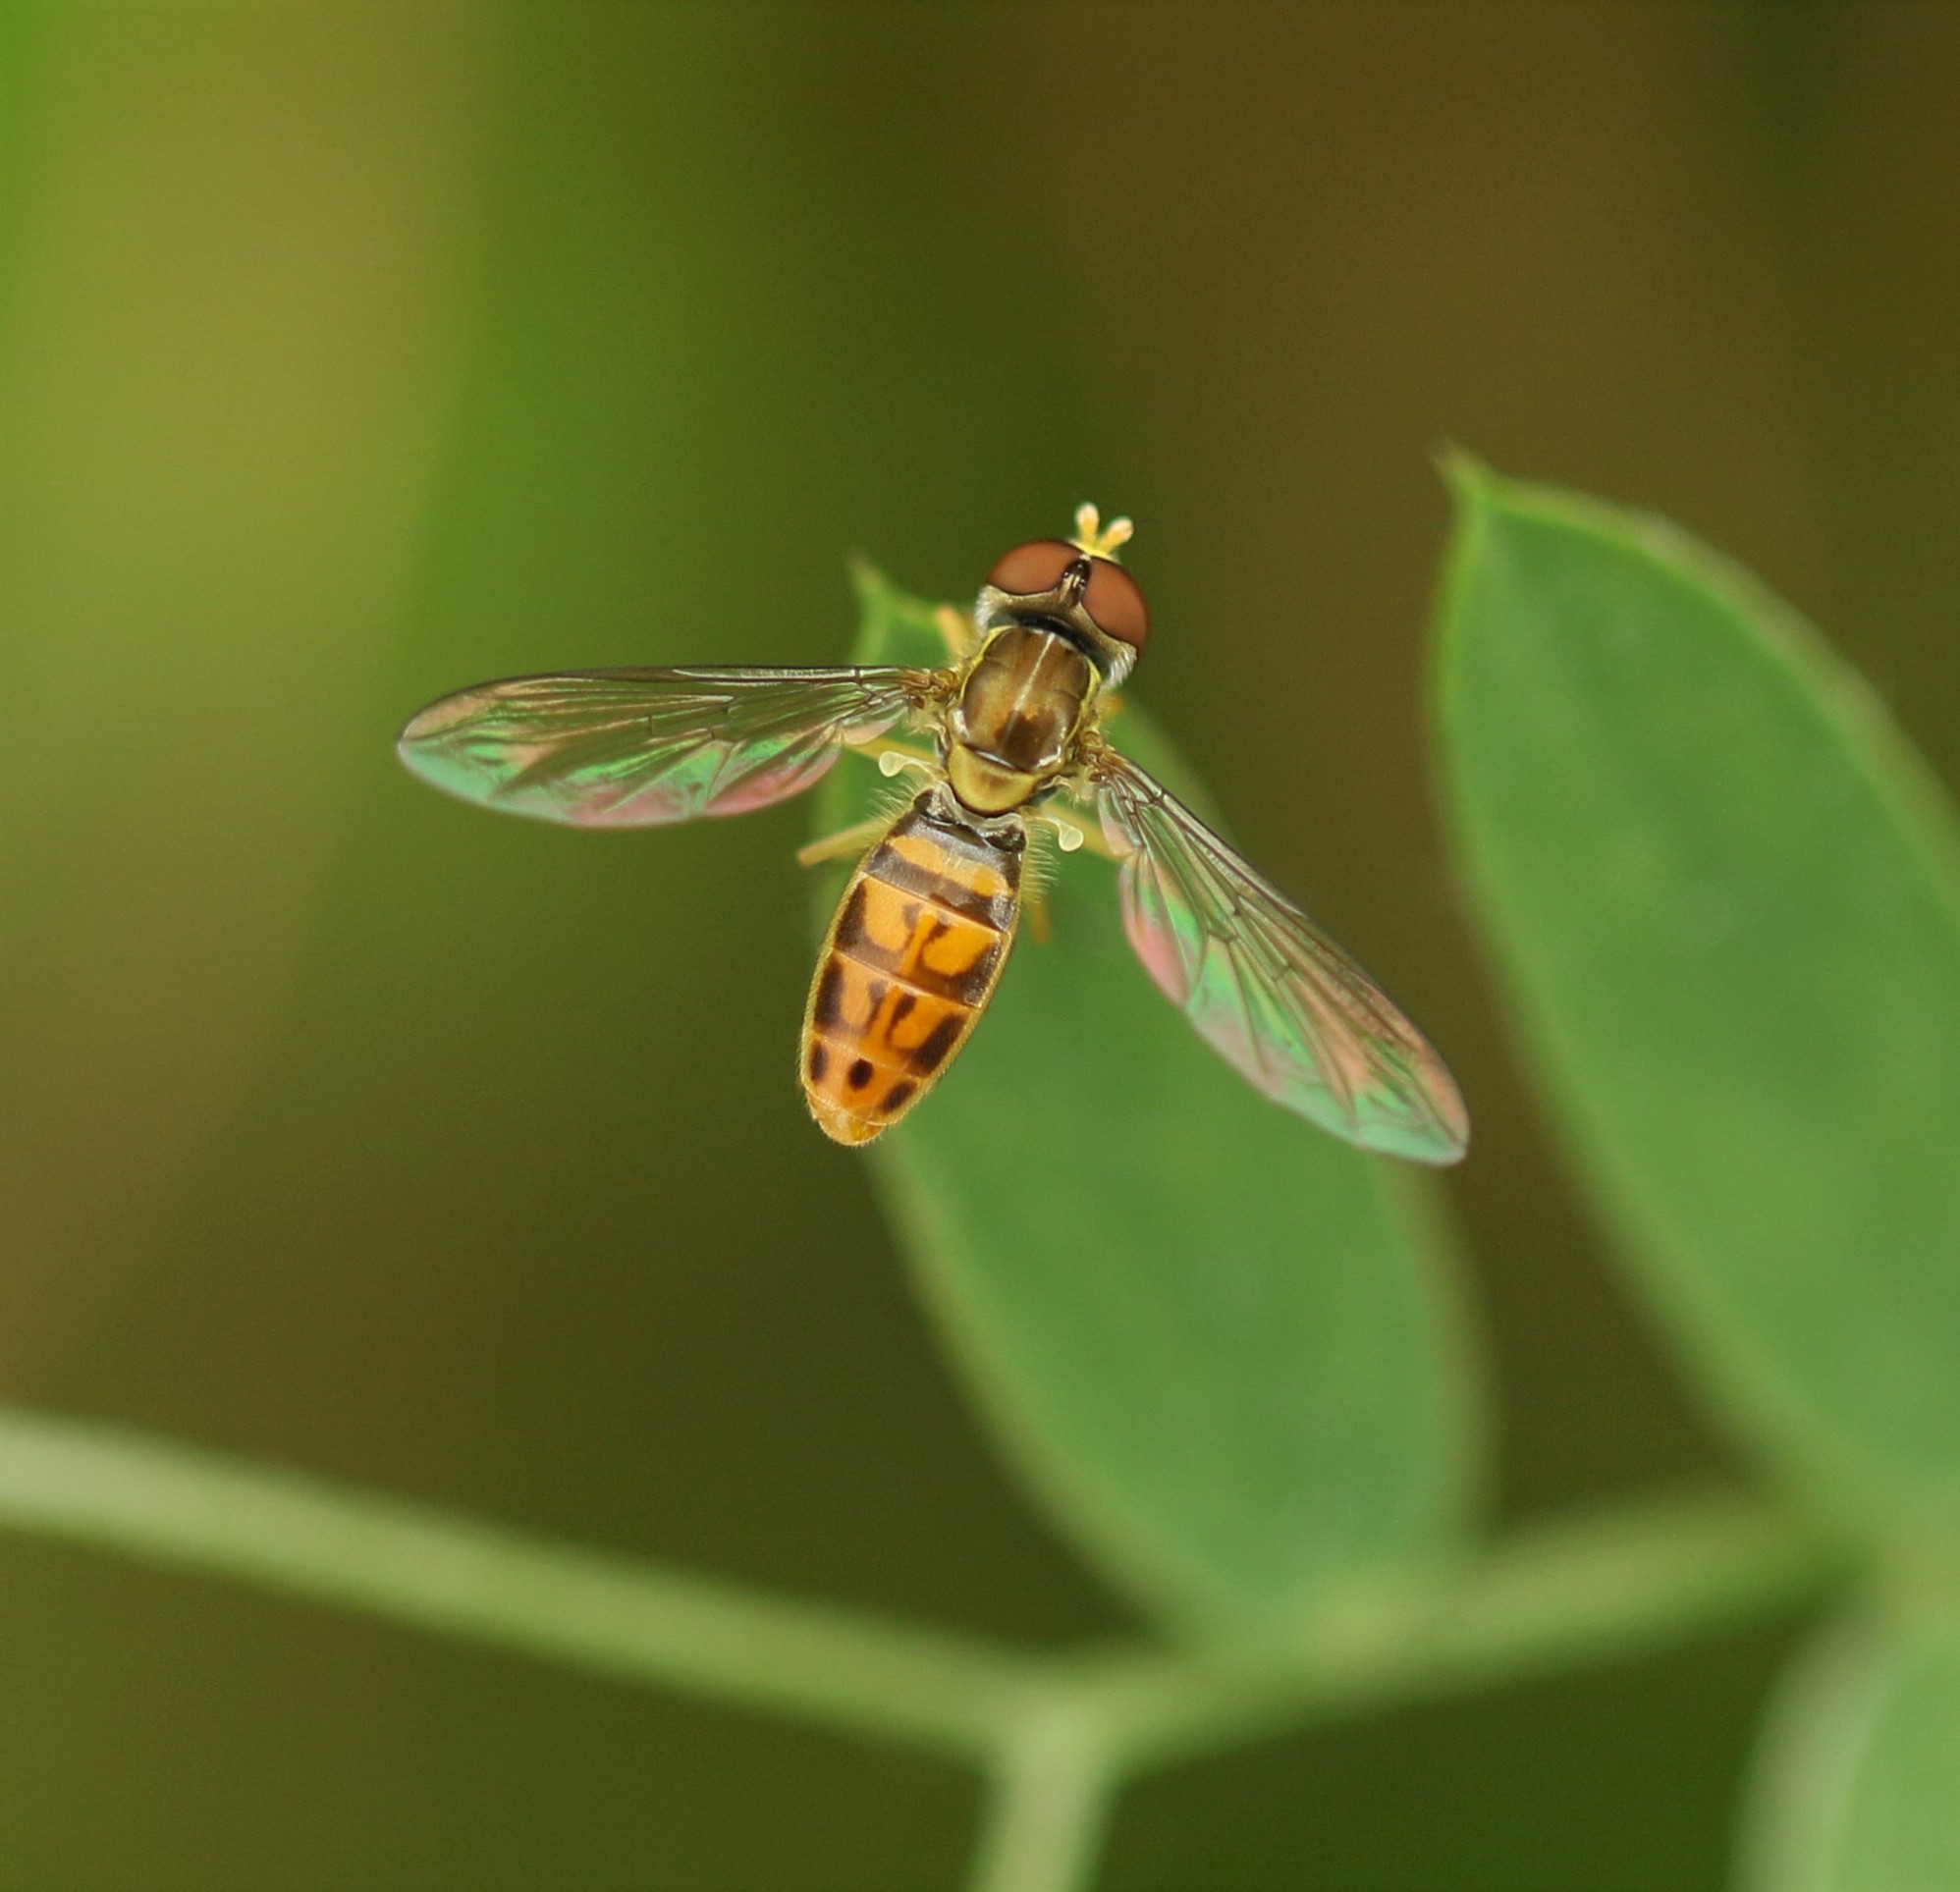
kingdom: Animalia
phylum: Arthropoda
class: Insecta
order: Diptera
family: Syrphidae
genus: Toxomerus
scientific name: Toxomerus marginatus
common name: Syrphid fly
